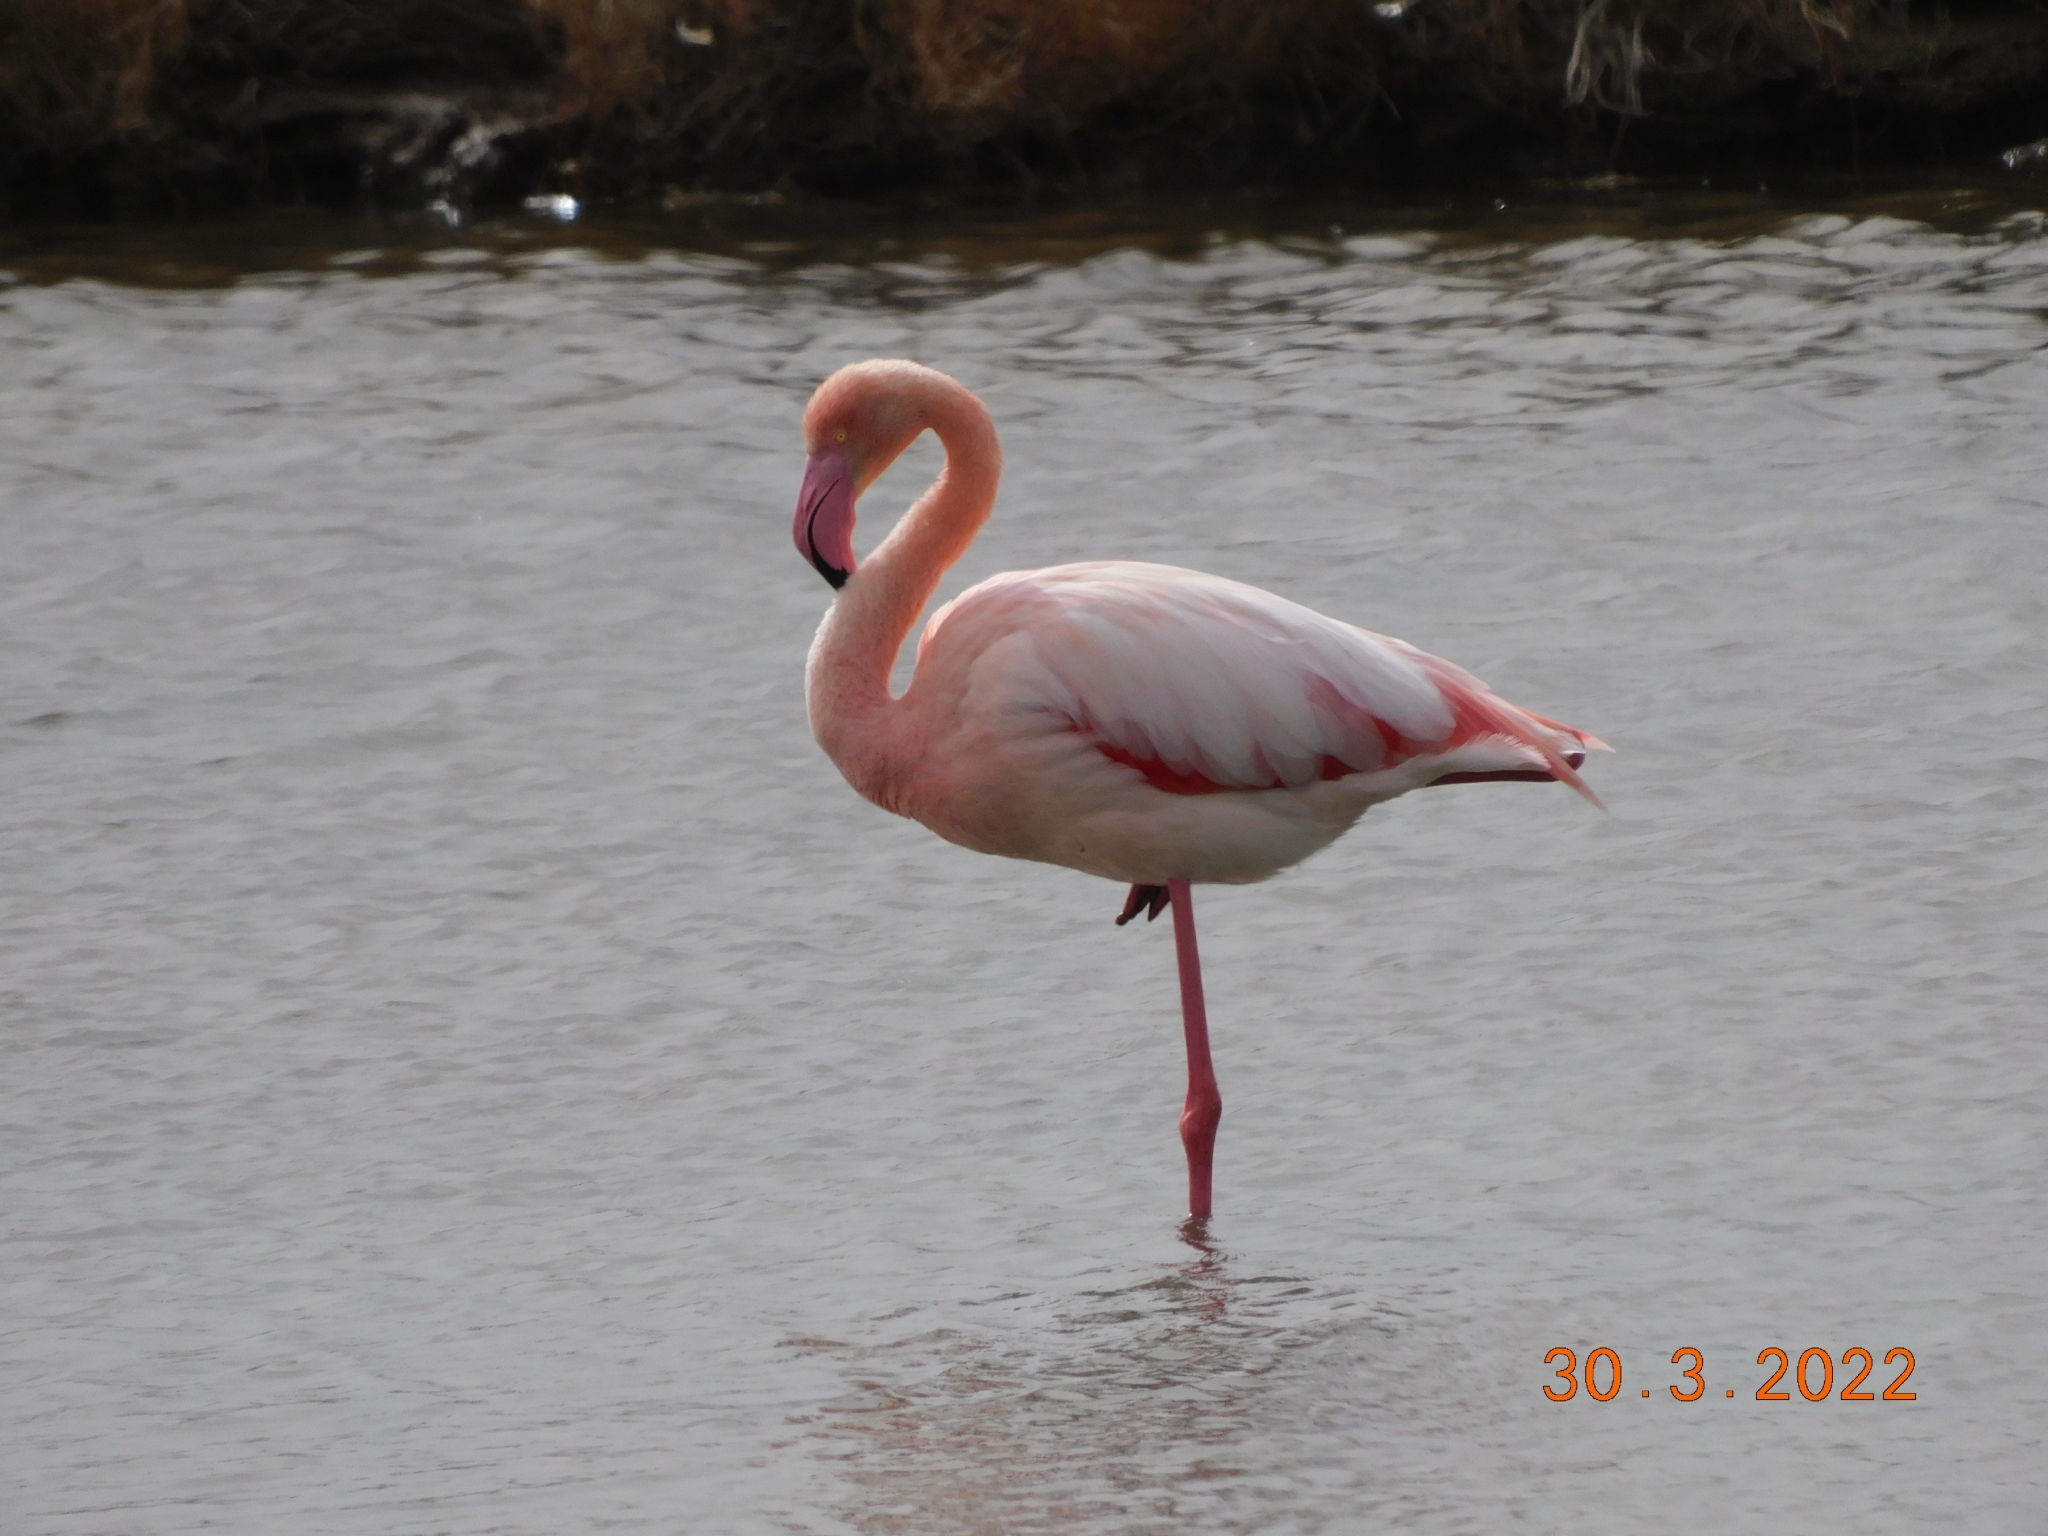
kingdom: Animalia
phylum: Chordata
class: Aves
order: Phoenicopteriformes
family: Phoenicopteridae
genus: Phoenicopterus
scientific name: Phoenicopterus roseus
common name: Greater flamingo
